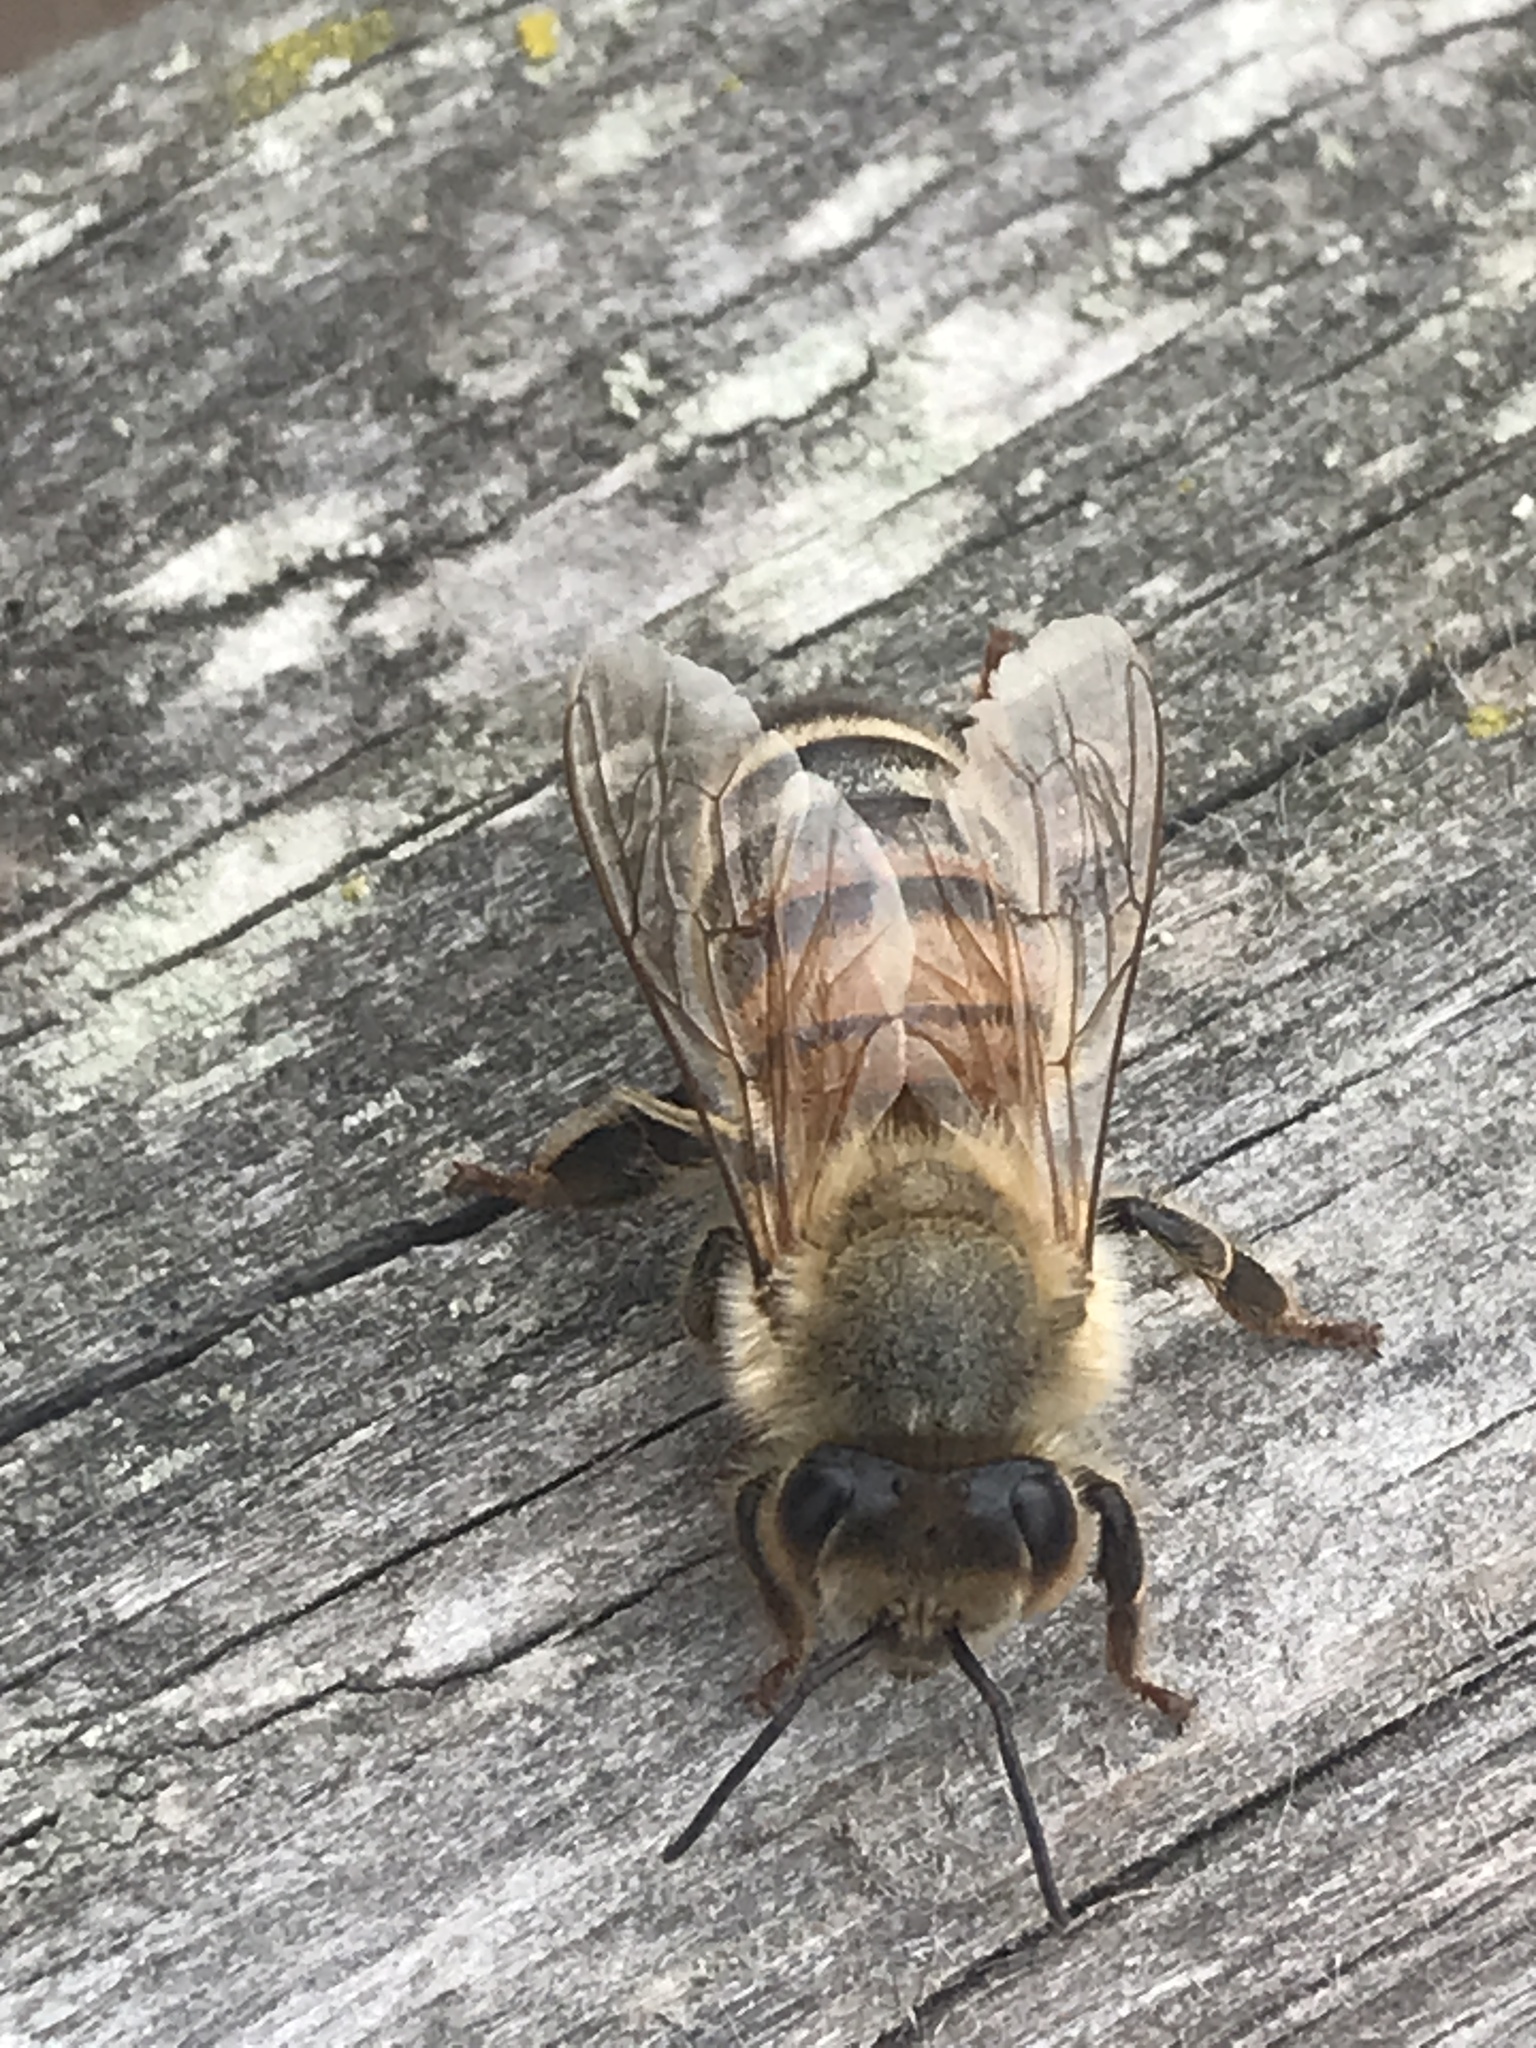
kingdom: Animalia
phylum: Arthropoda
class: Insecta
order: Hymenoptera
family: Apidae
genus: Apis
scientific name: Apis mellifera
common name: Honey bee
